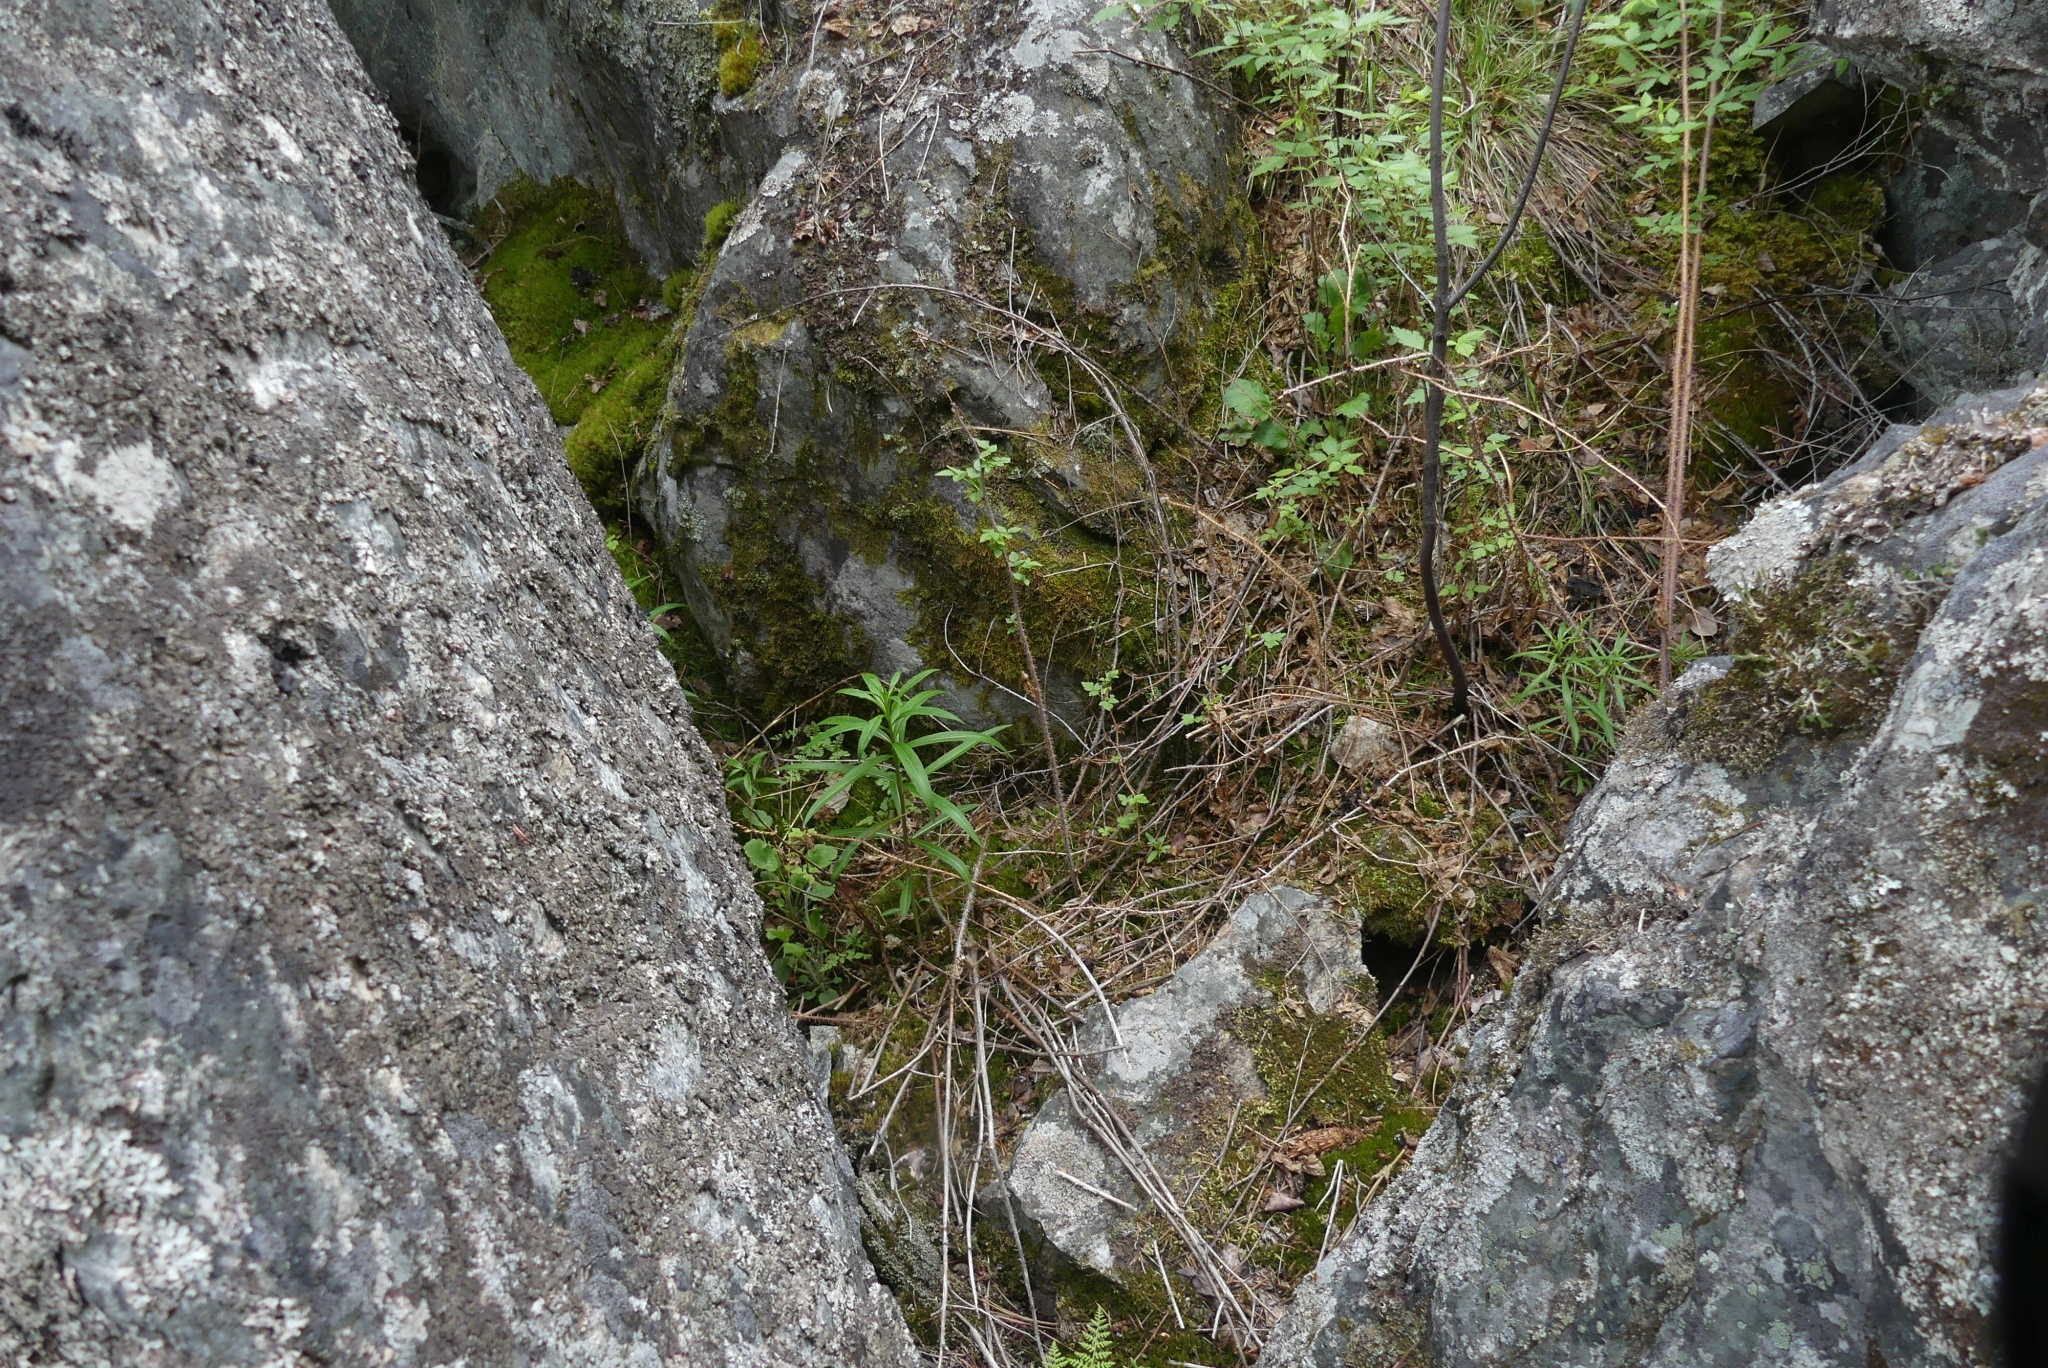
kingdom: Plantae
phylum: Tracheophyta
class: Magnoliopsida
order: Myrtales
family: Onagraceae
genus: Chamaenerion
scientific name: Chamaenerion angustifolium
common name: Fireweed
